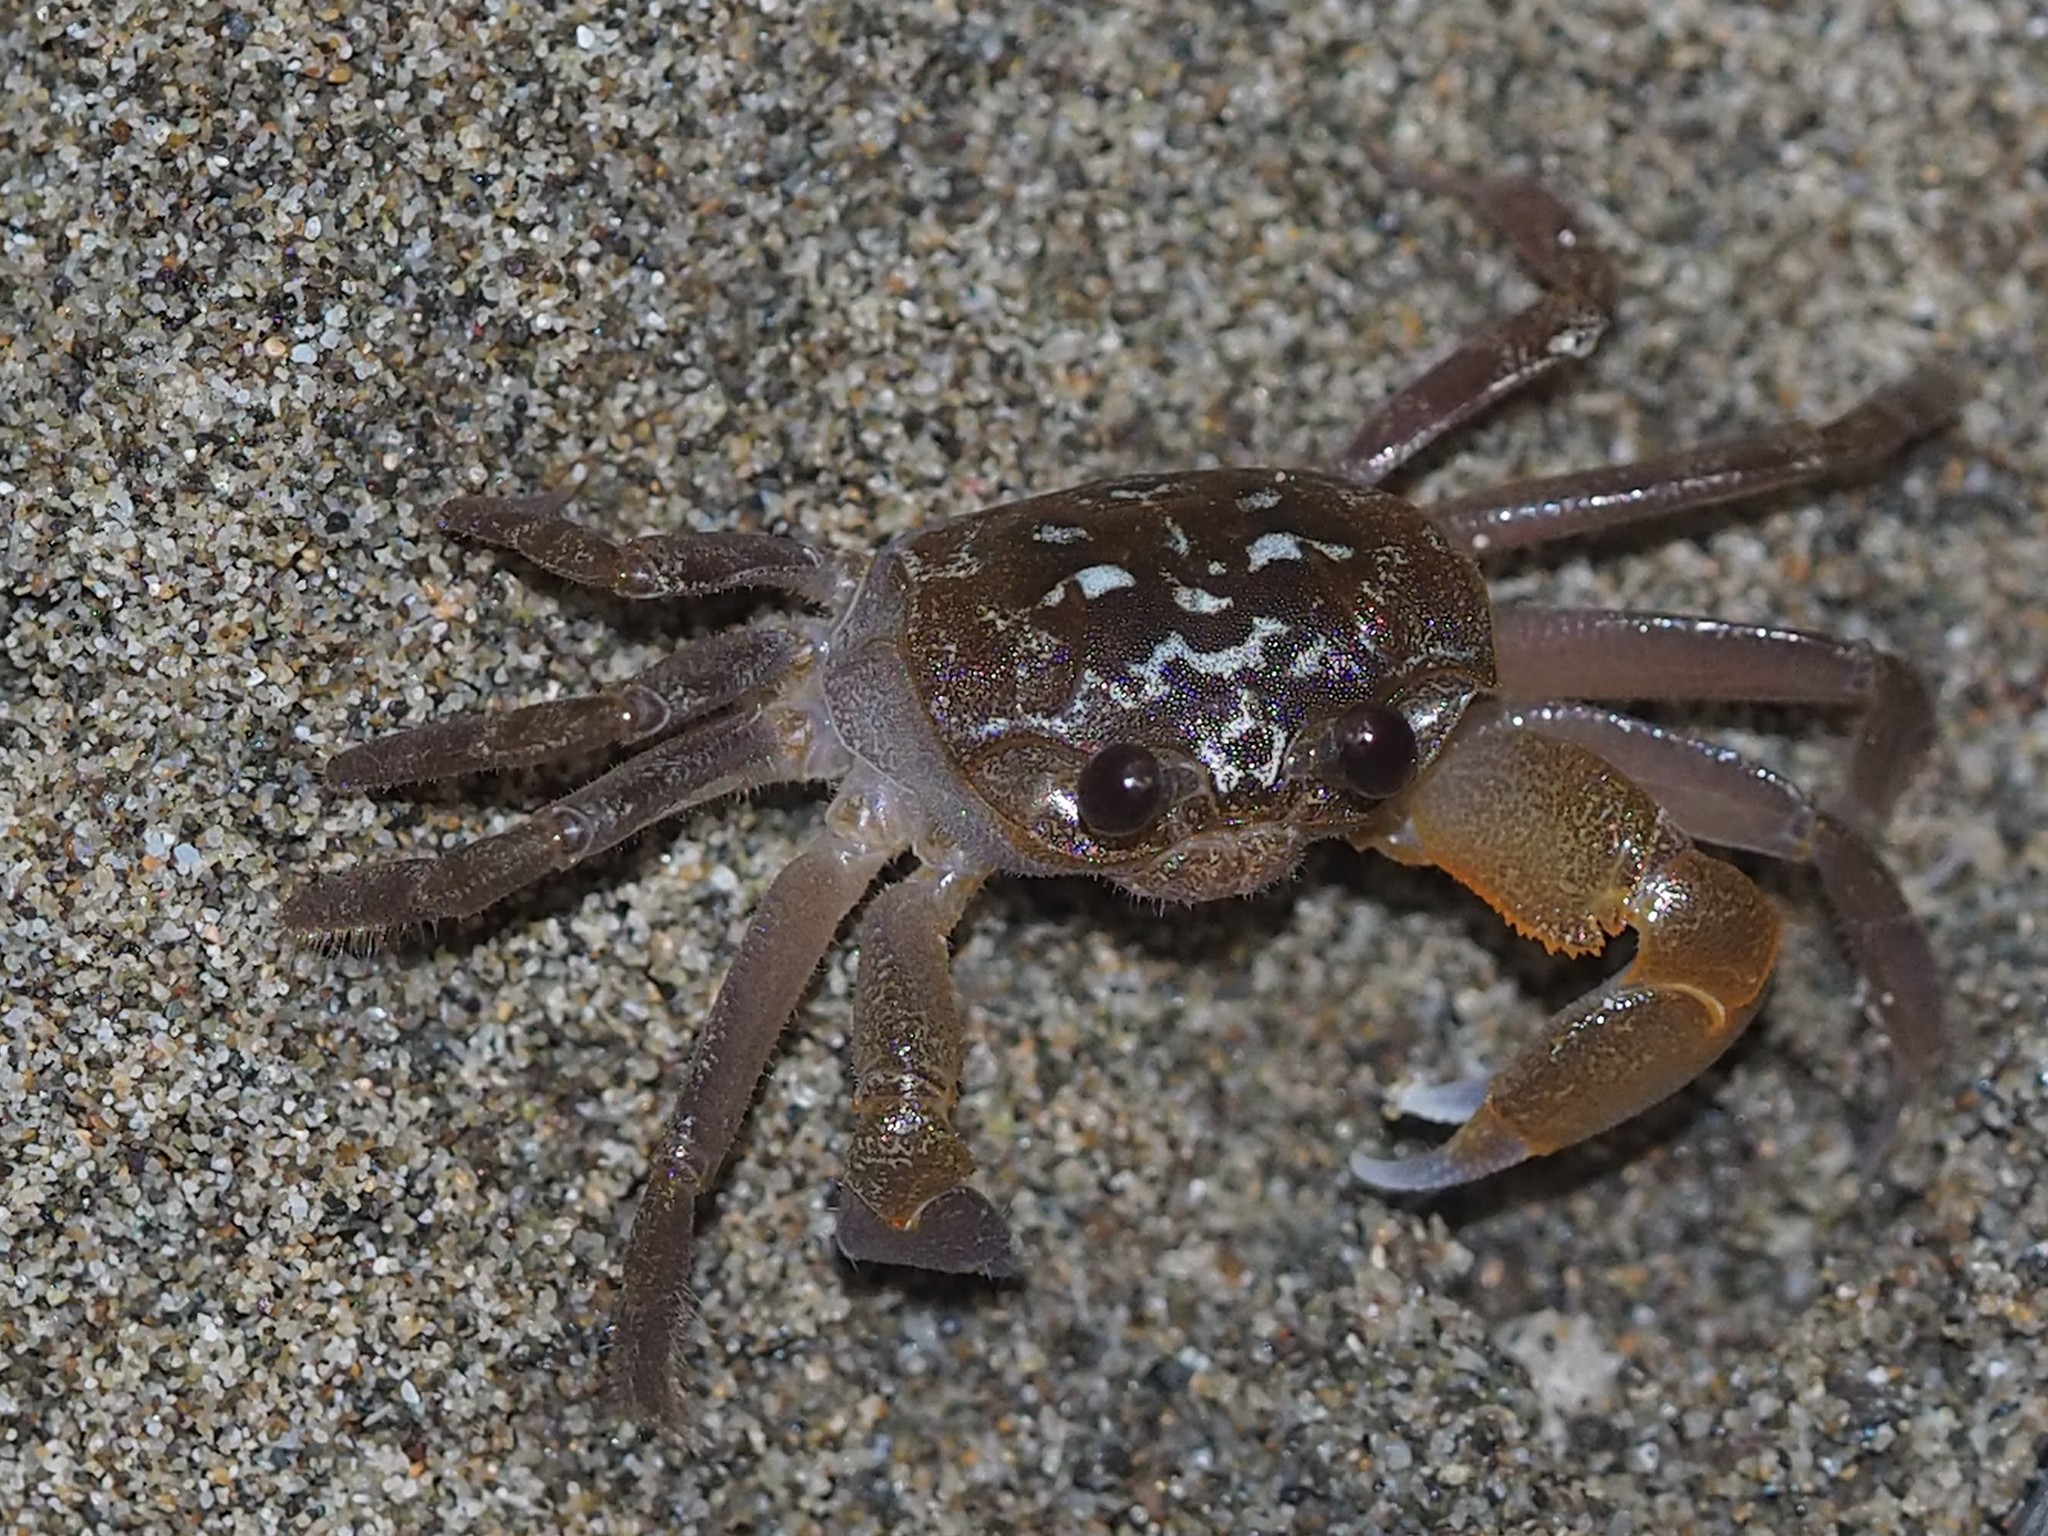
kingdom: Animalia
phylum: Arthropoda
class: Malacostraca
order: Decapoda
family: Ocypodidae
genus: Ocypode
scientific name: Ocypode sinensis
